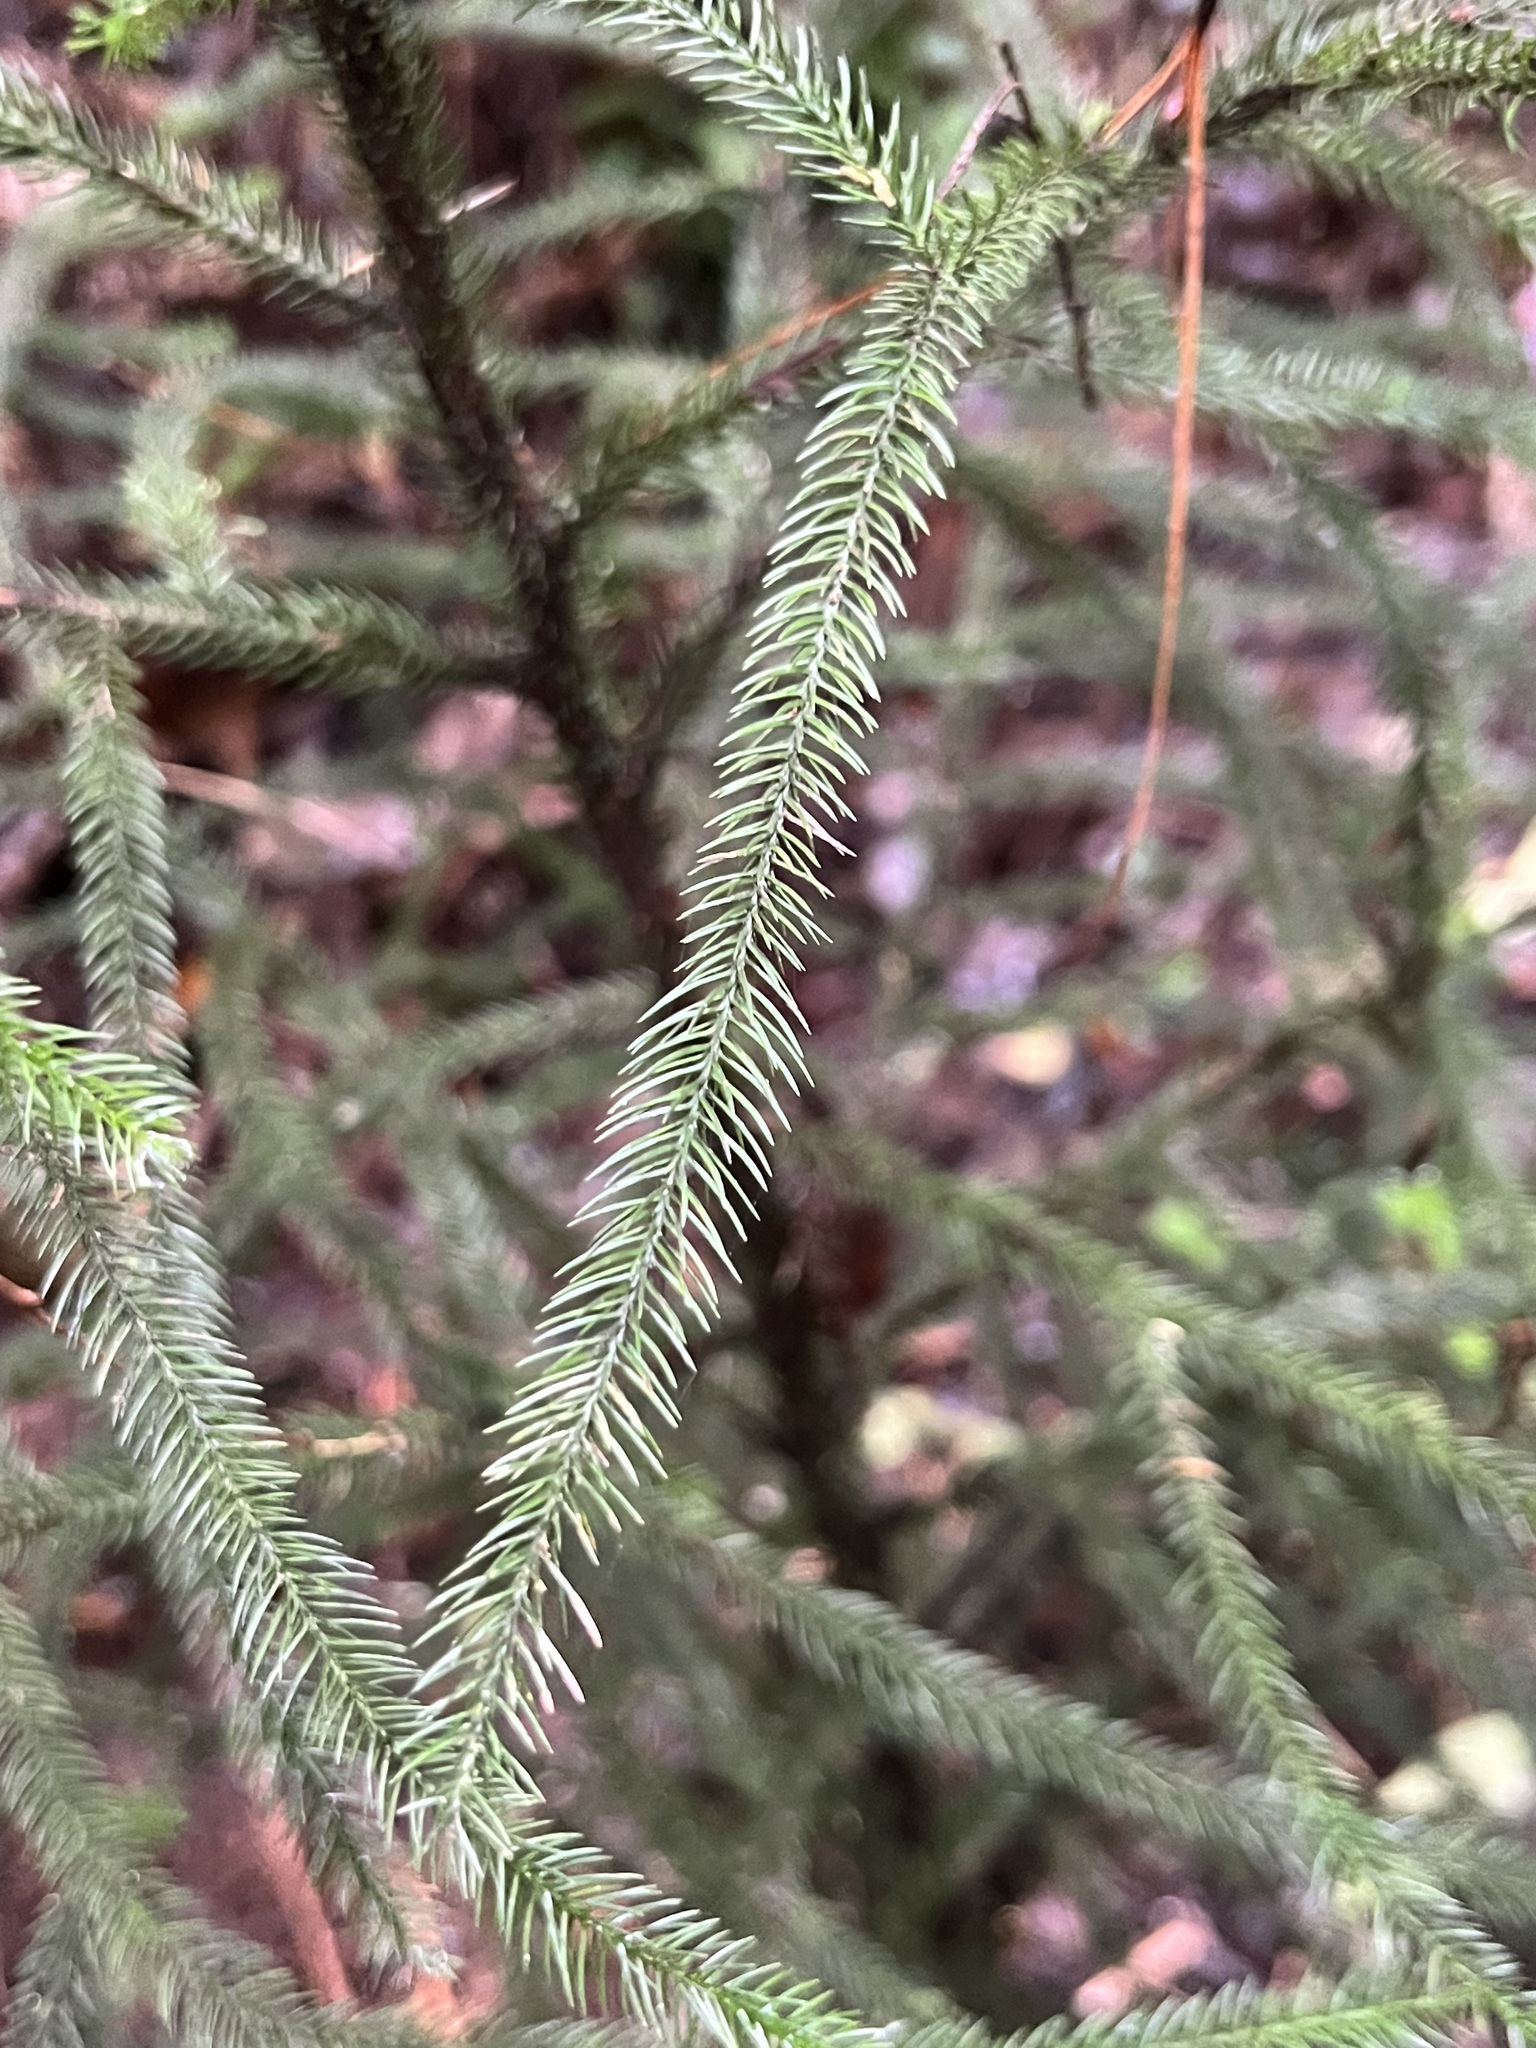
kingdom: Plantae
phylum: Tracheophyta
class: Pinopsida
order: Pinales
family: Podocarpaceae
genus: Dacrydium
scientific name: Dacrydium cupressinum
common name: Red pine
